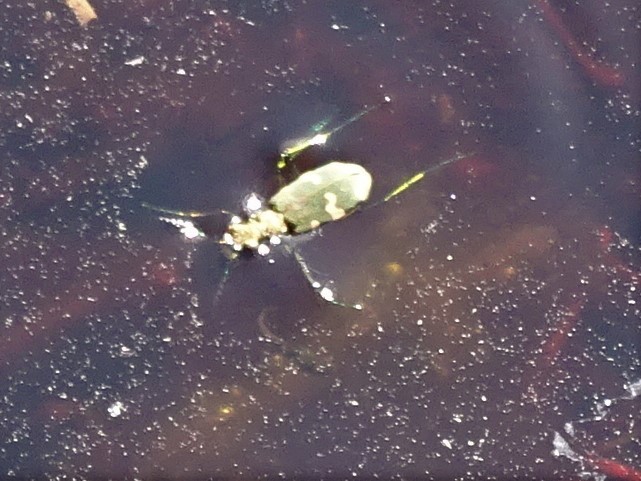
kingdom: Animalia
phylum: Arthropoda
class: Insecta
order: Coleoptera
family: Carabidae
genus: Cicindela
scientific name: Cicindela sylvicola
